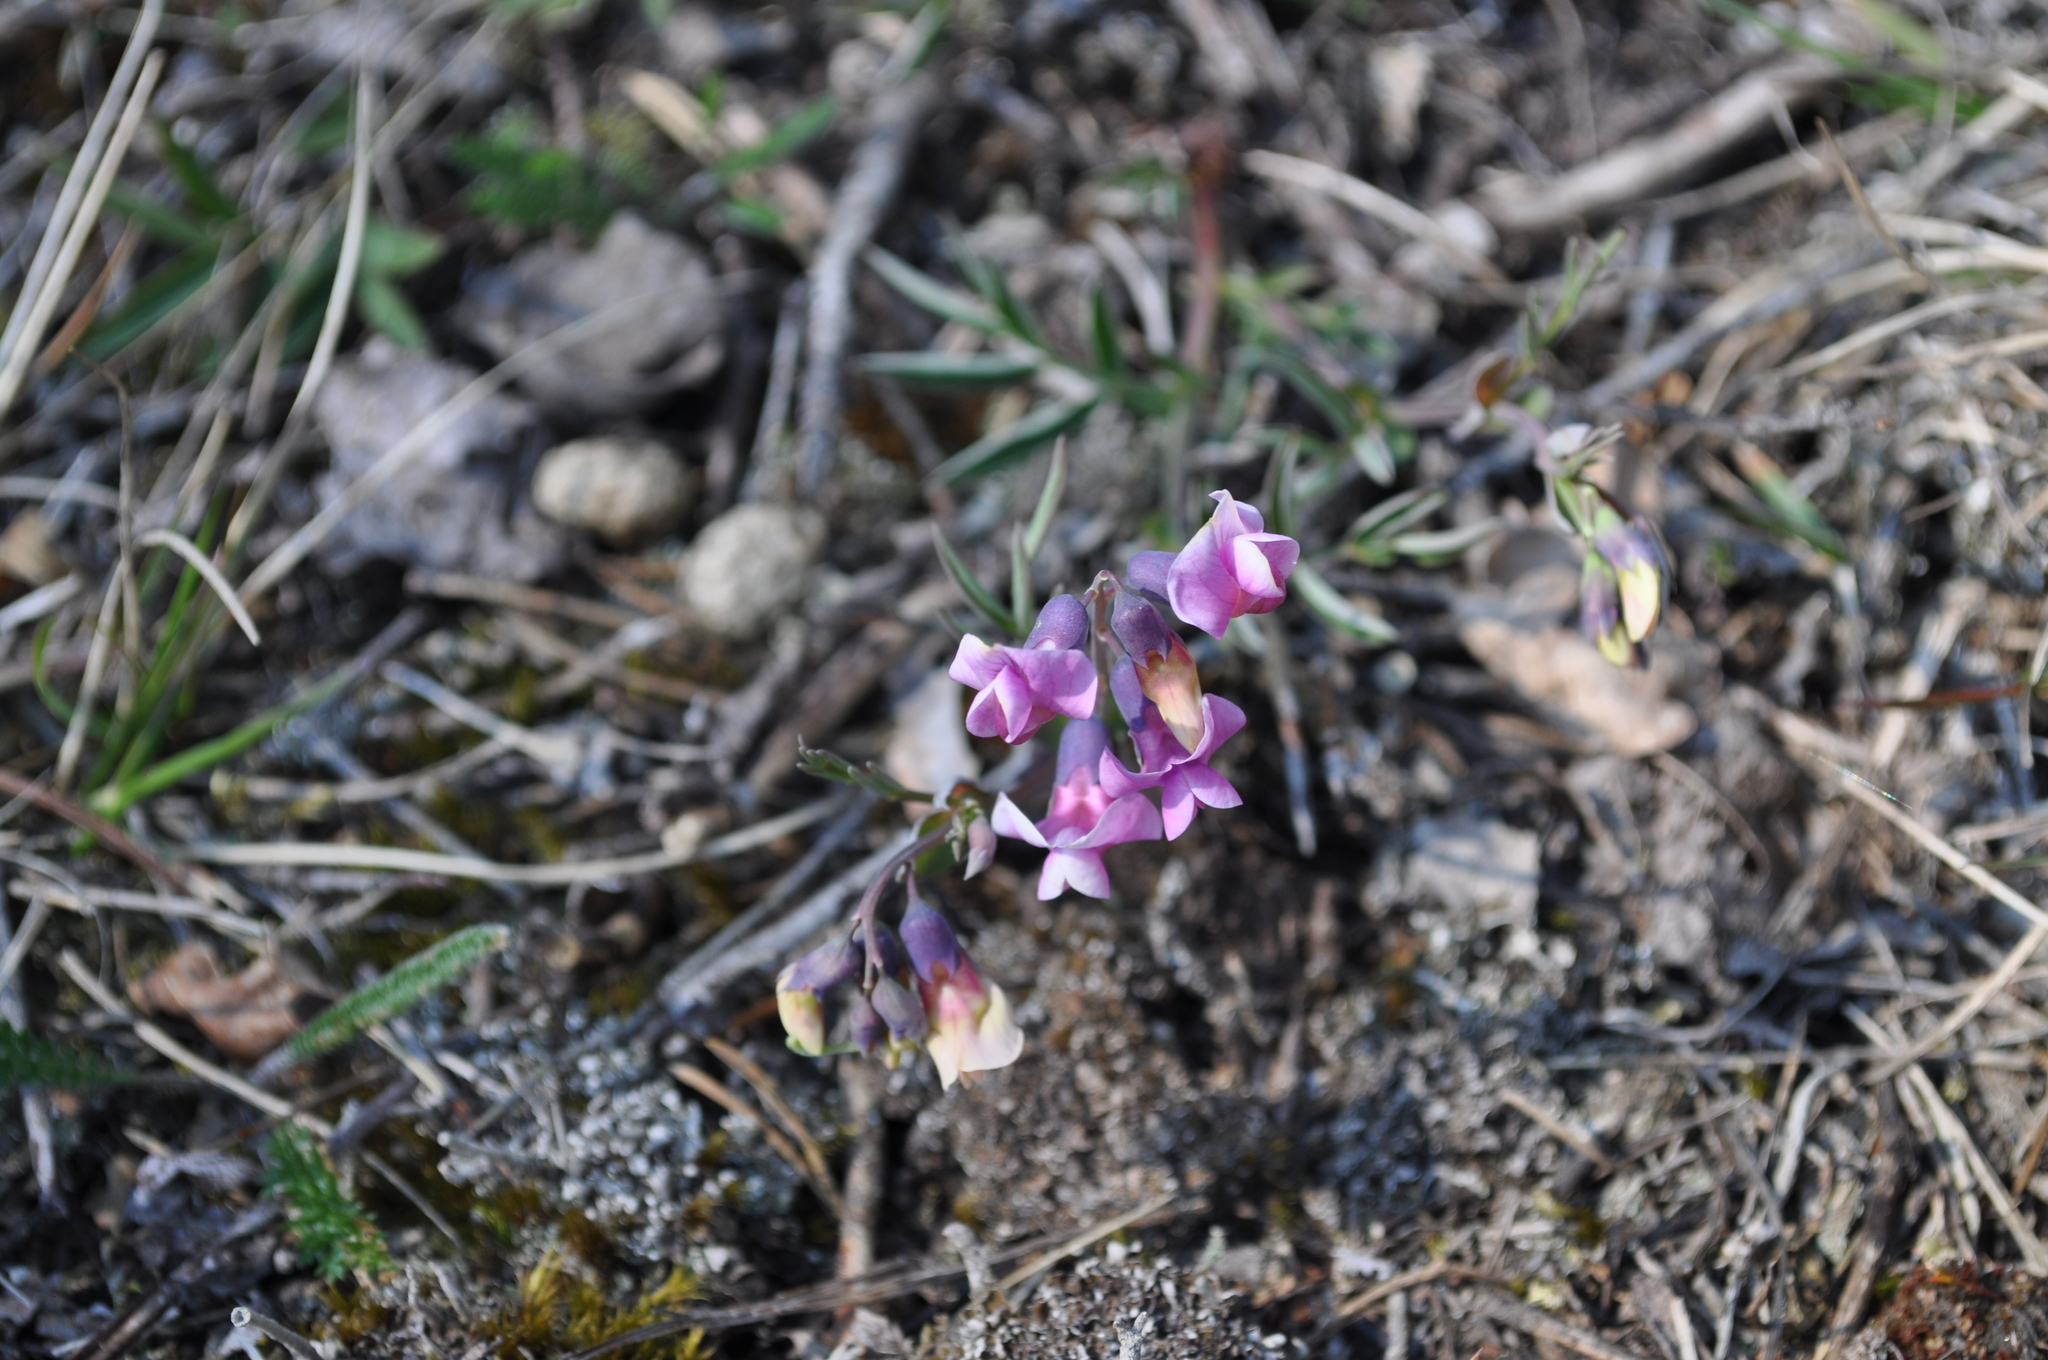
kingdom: Plantae
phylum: Tracheophyta
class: Magnoliopsida
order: Fabales
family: Fabaceae
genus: Lathyrus
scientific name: Lathyrus linifolius
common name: Bitter-vetch
